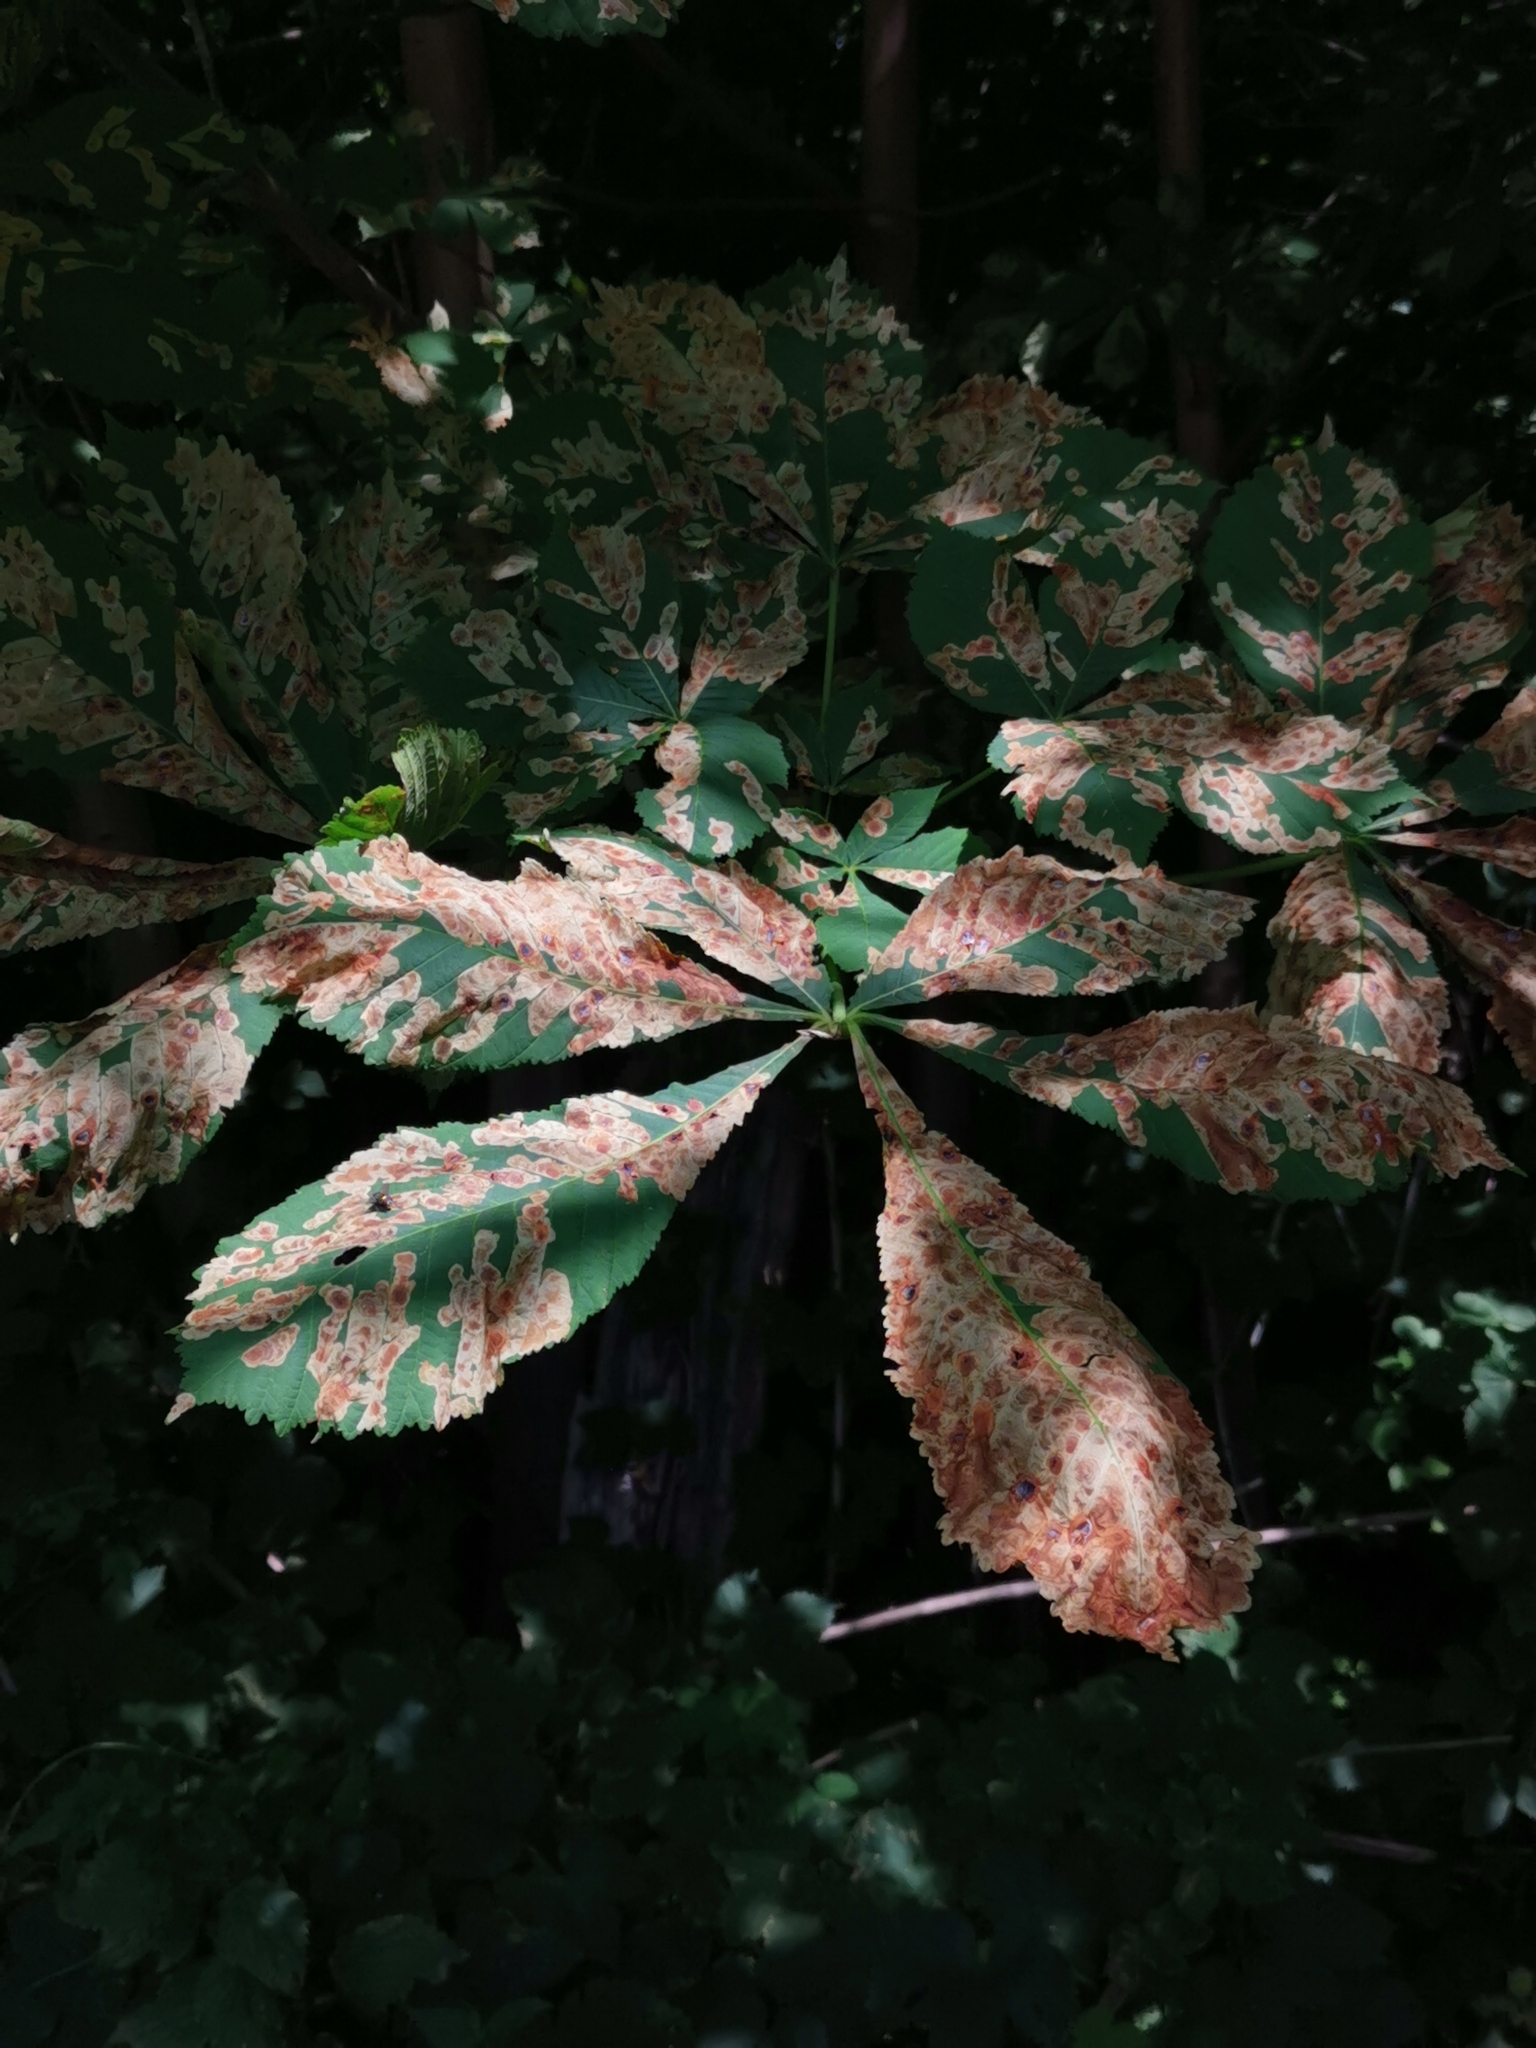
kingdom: Animalia
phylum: Arthropoda
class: Insecta
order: Lepidoptera
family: Gracillariidae
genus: Cameraria
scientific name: Cameraria ohridella
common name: Horse-chestnut leaf-miner
